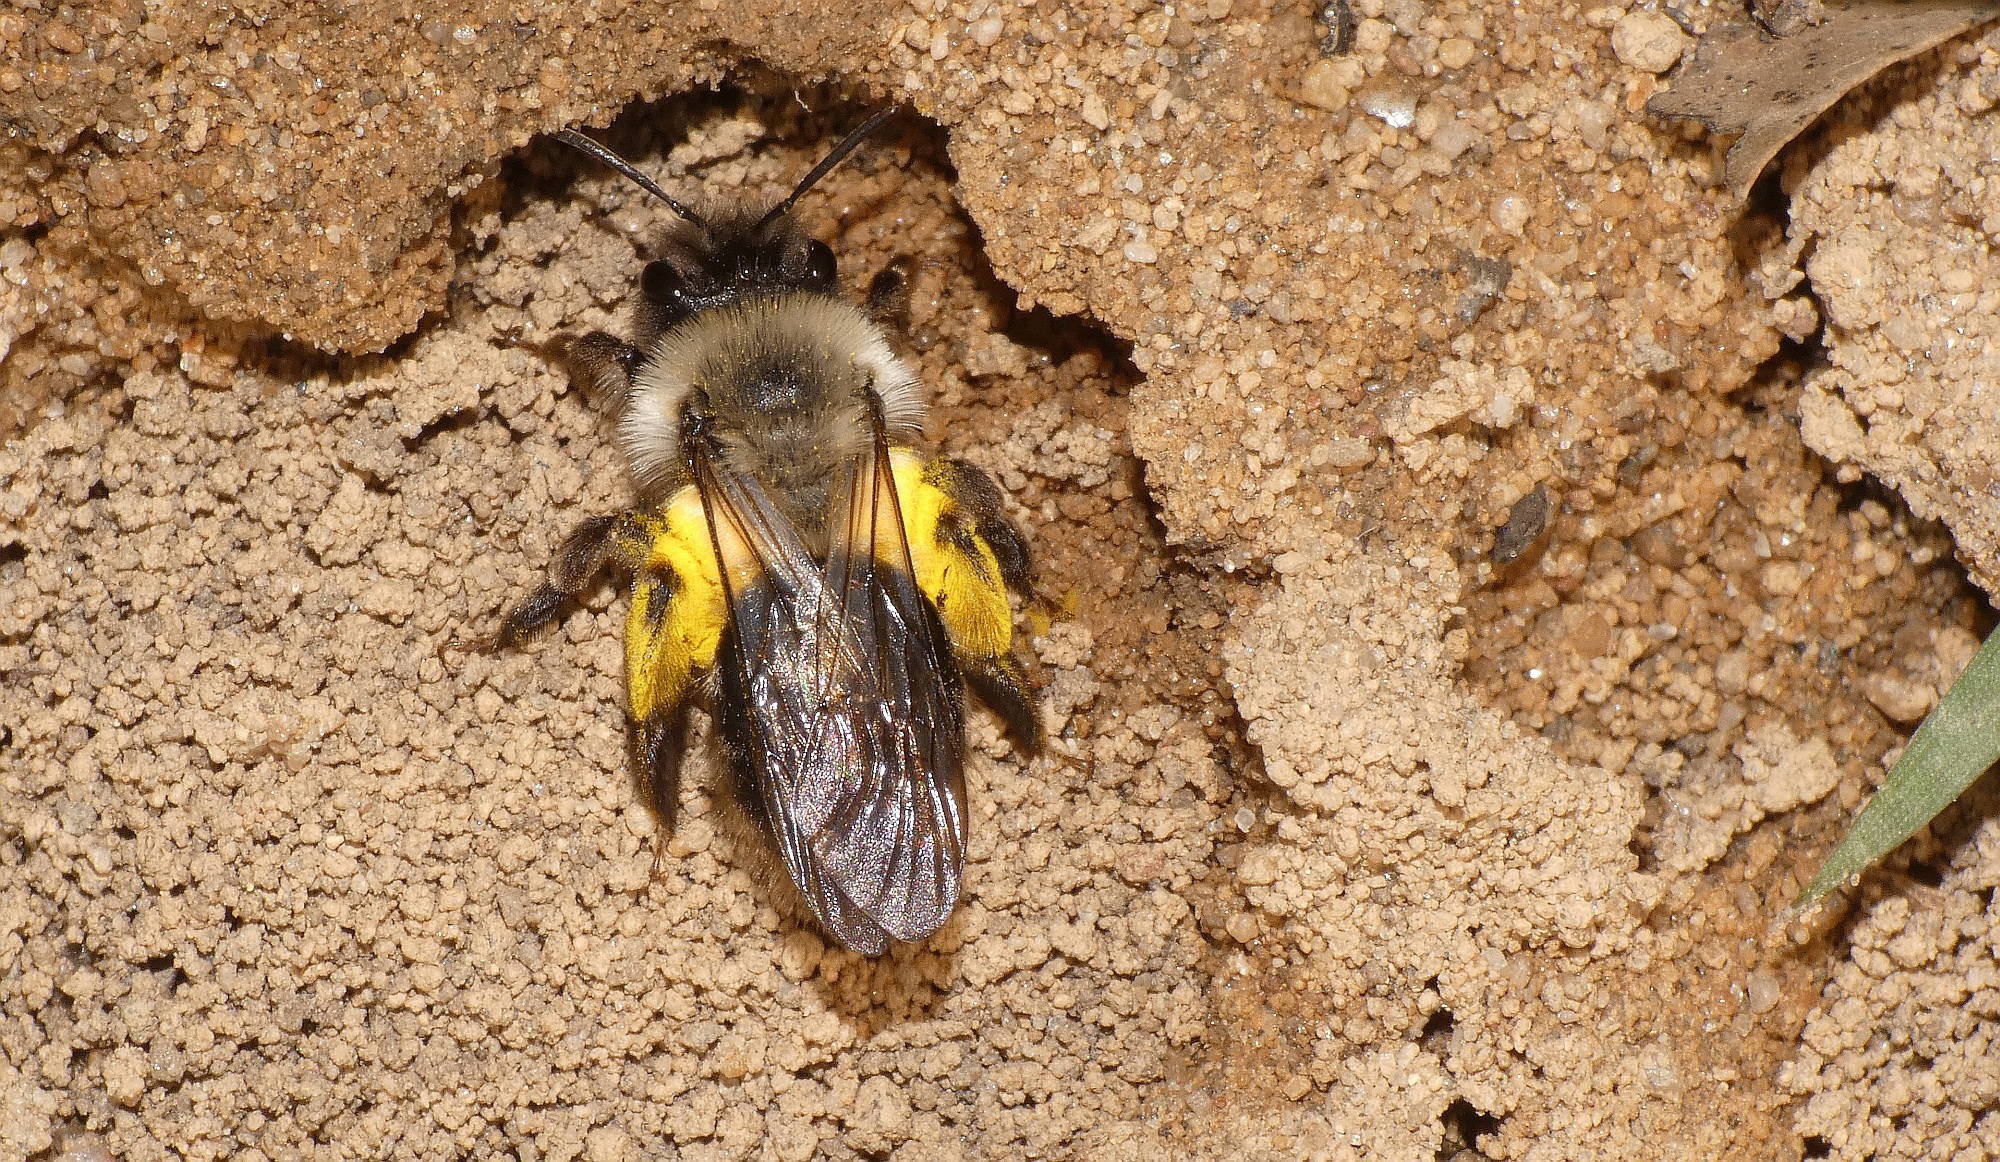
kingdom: Animalia
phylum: Arthropoda
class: Insecta
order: Hymenoptera
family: Andrenidae
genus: Andrena
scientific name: Andrena vaga
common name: Grey-backed mining bee
